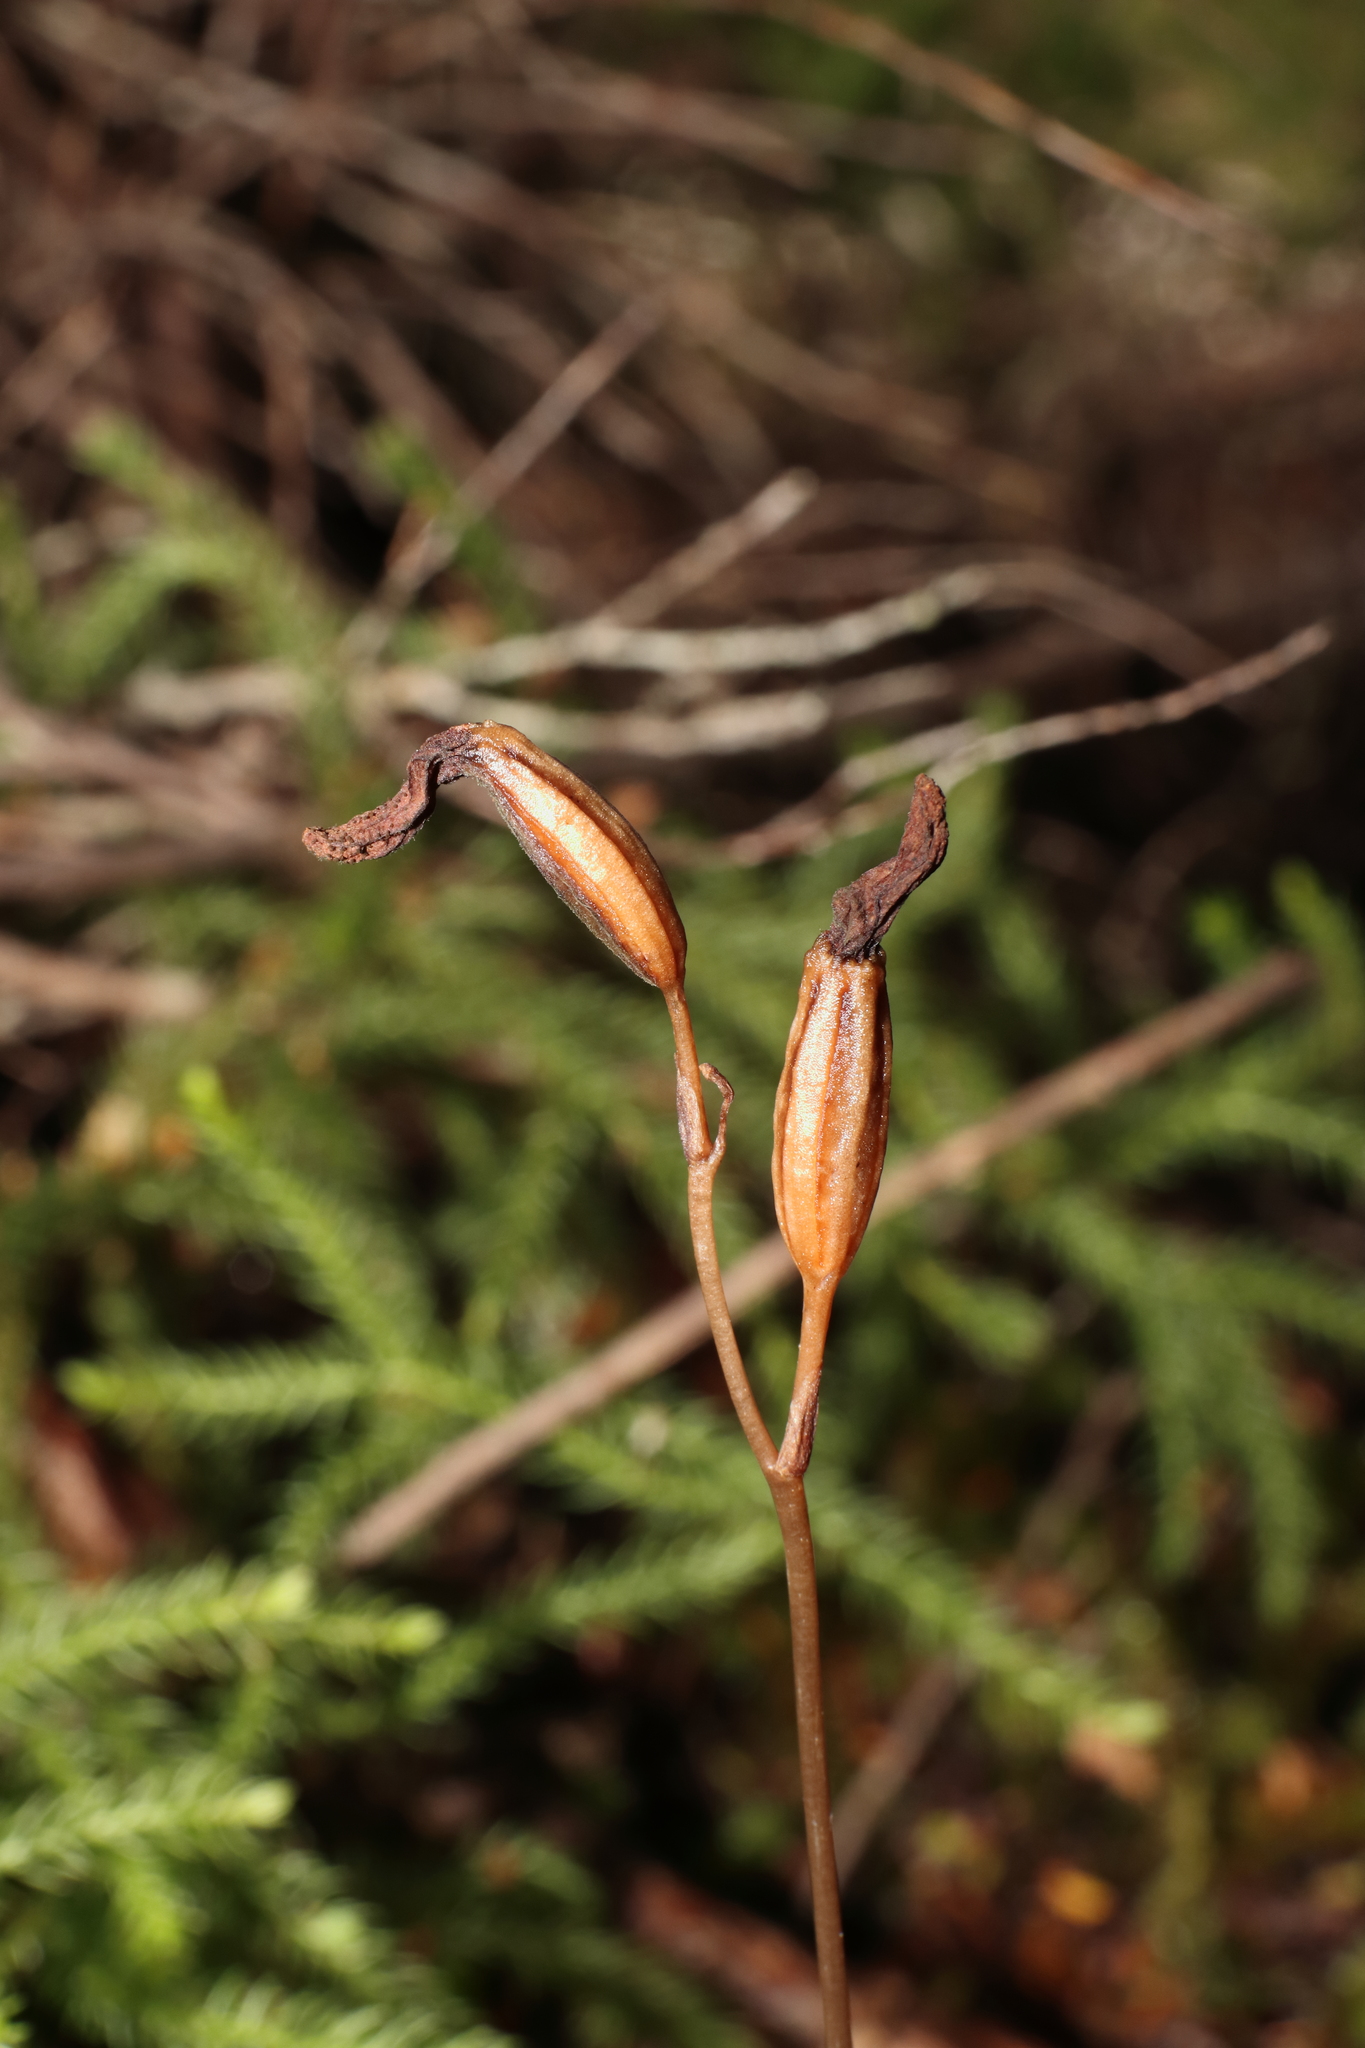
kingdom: Plantae
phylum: Tracheophyta
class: Liliopsida
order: Asparagales
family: Orchidaceae
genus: Gastrodia
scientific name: Gastrodia minor
